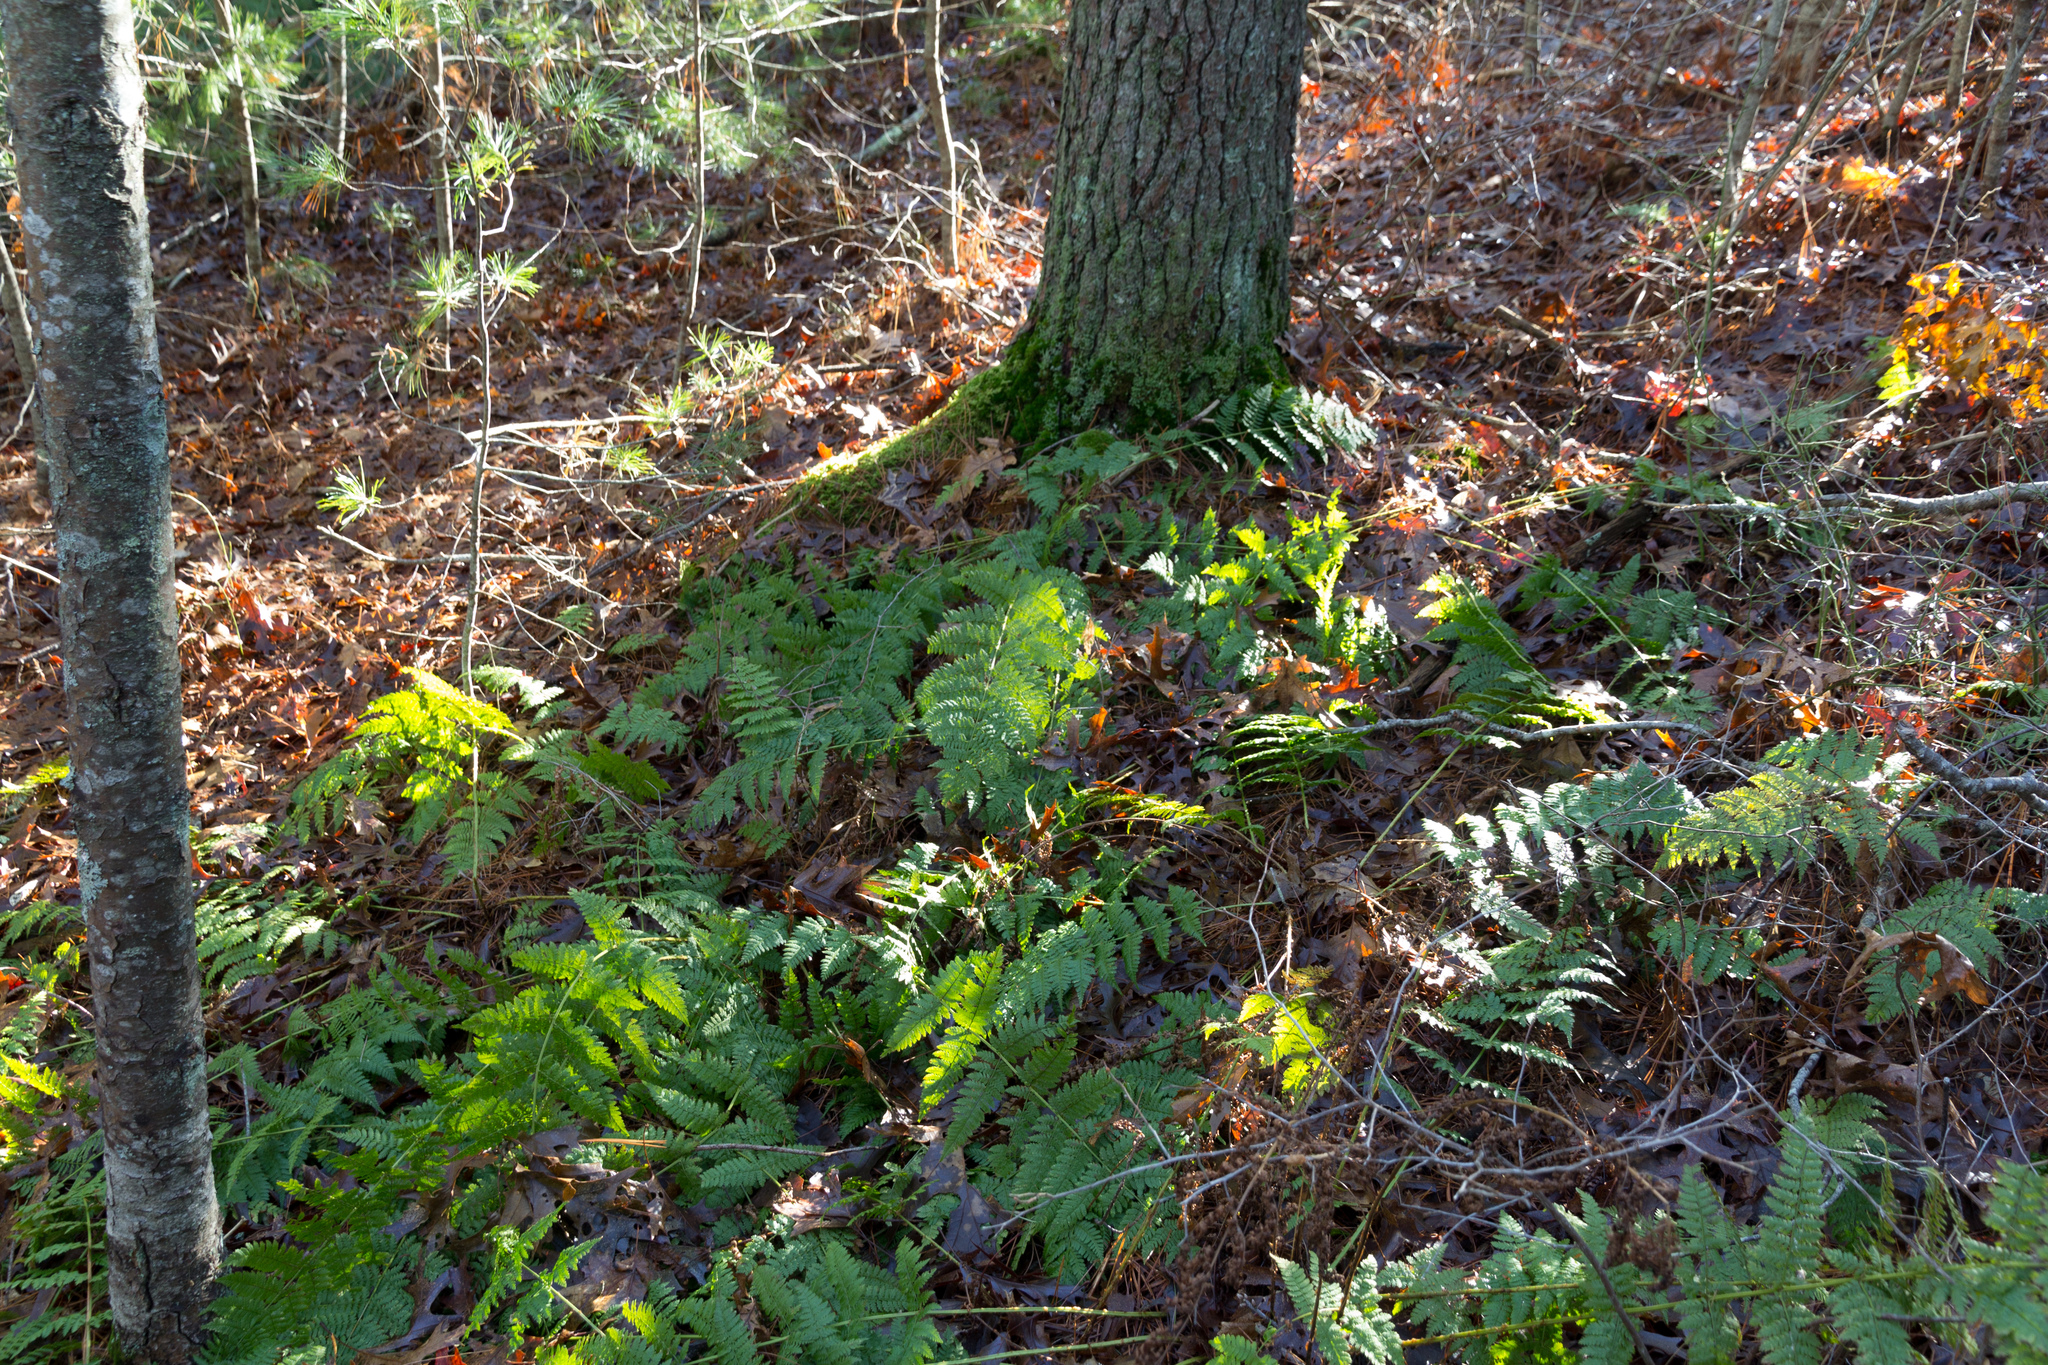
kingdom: Plantae
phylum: Tracheophyta
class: Polypodiopsida
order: Polypodiales
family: Dryopteridaceae
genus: Dryopteris
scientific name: Dryopteris intermedia
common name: Evergreen wood fern
